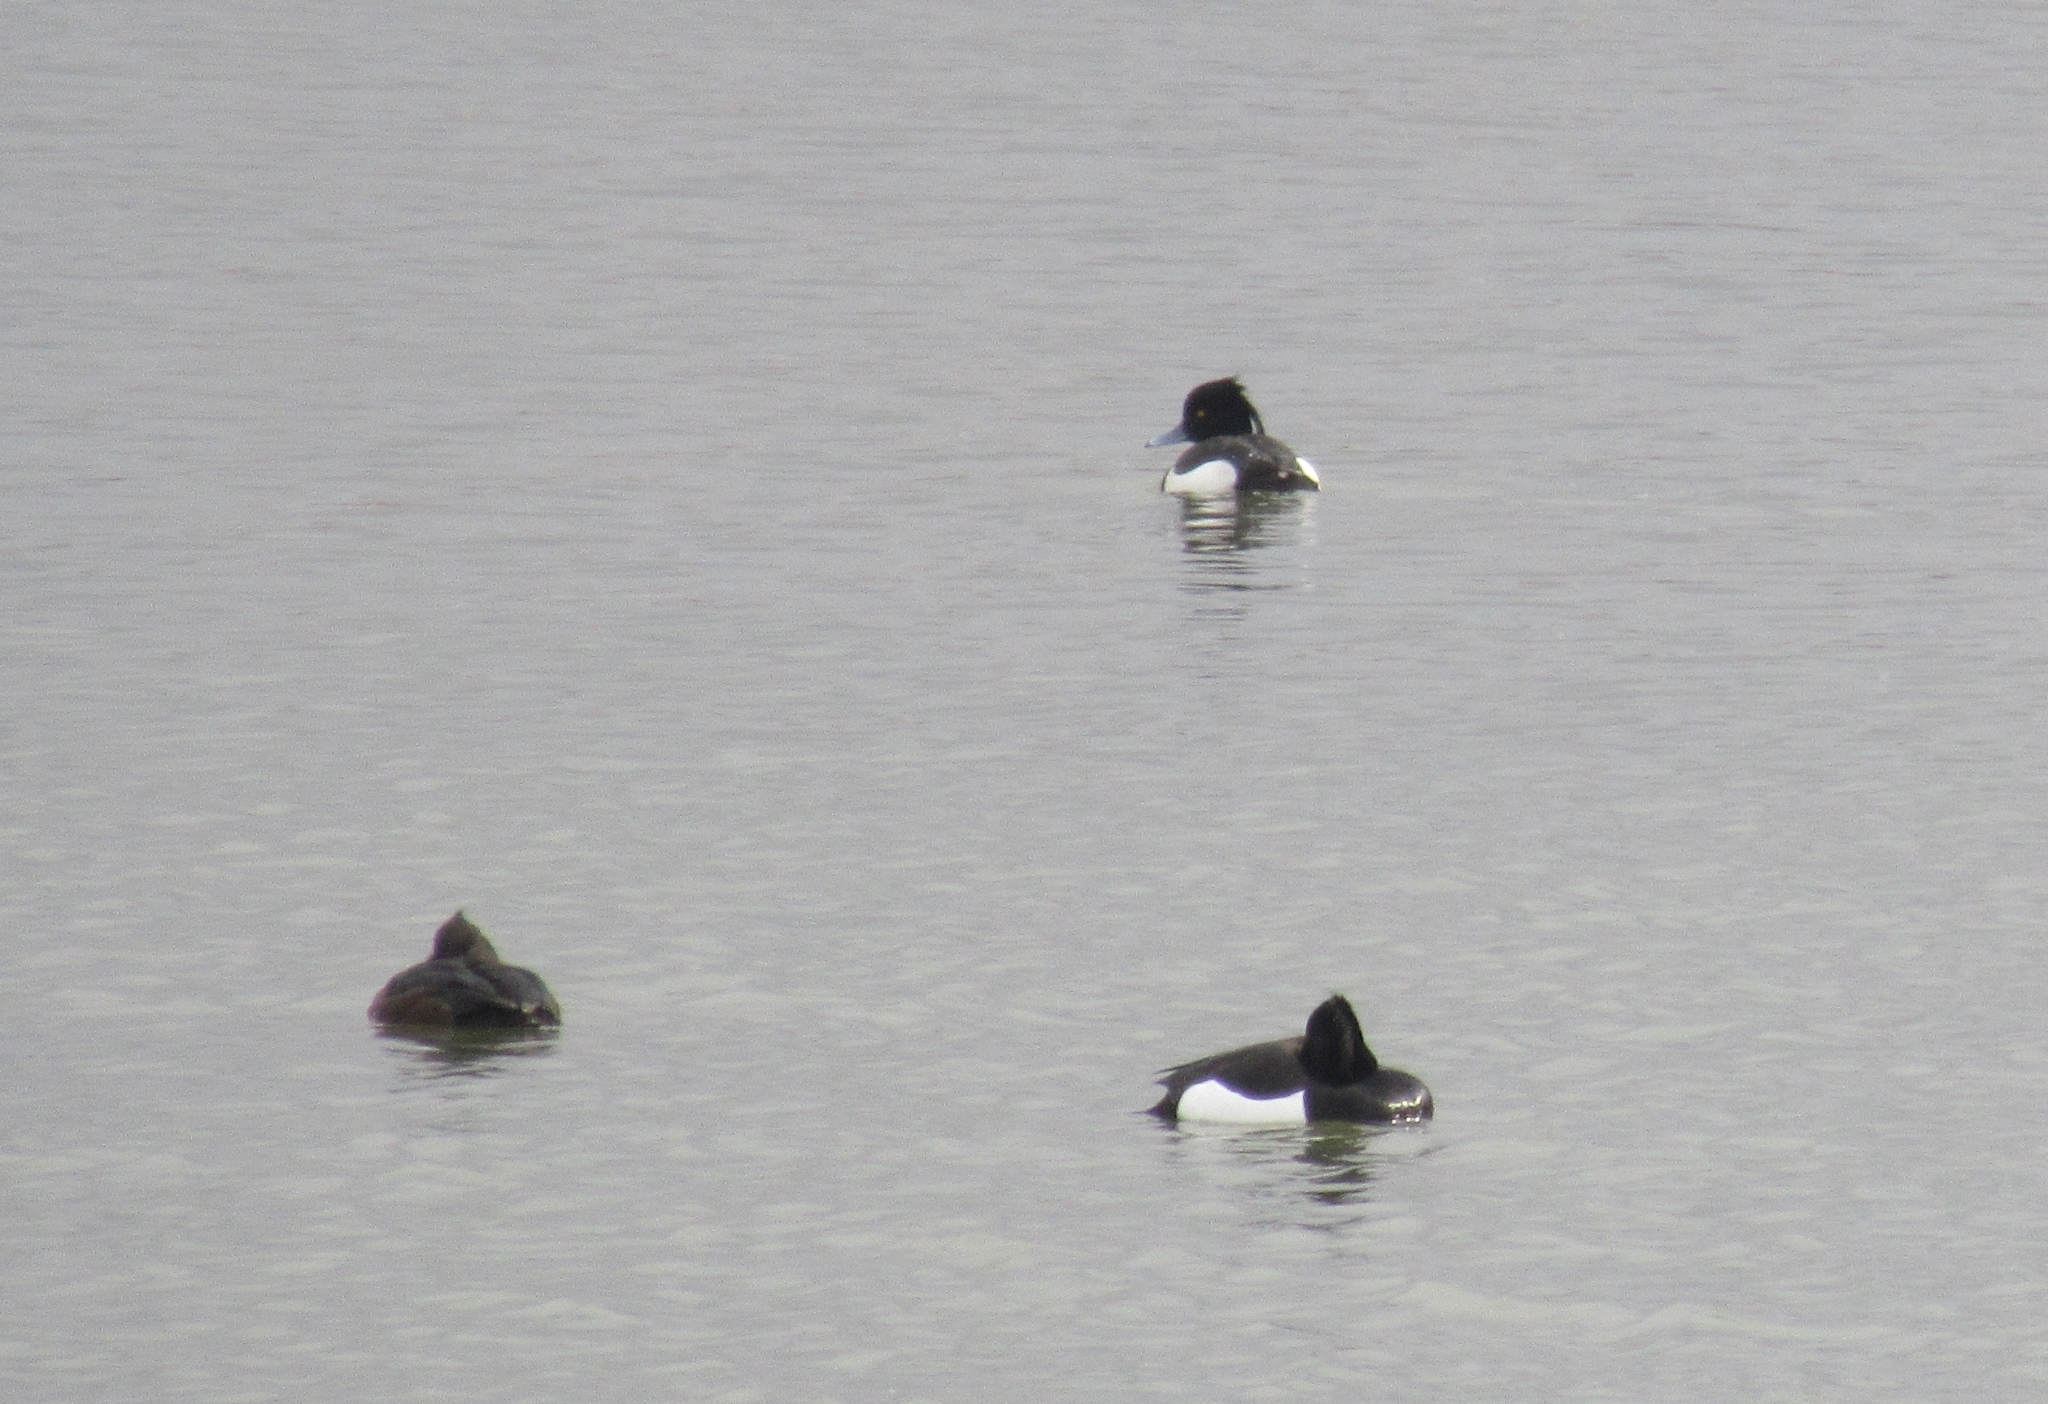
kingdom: Animalia
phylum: Chordata
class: Aves
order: Anseriformes
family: Anatidae
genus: Aythya
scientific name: Aythya fuligula
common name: Tufted duck
